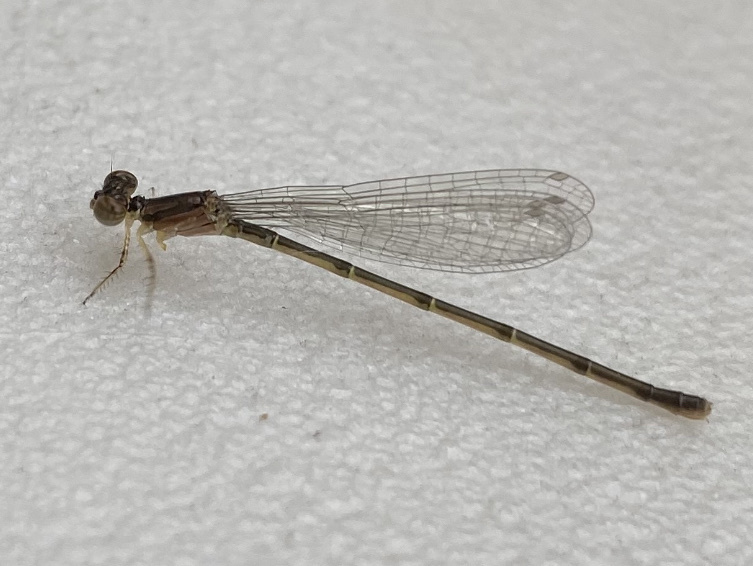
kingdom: Animalia
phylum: Arthropoda
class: Insecta
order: Odonata
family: Coenagrionidae
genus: Ischnura
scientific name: Ischnura posita
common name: Fragile forktail
